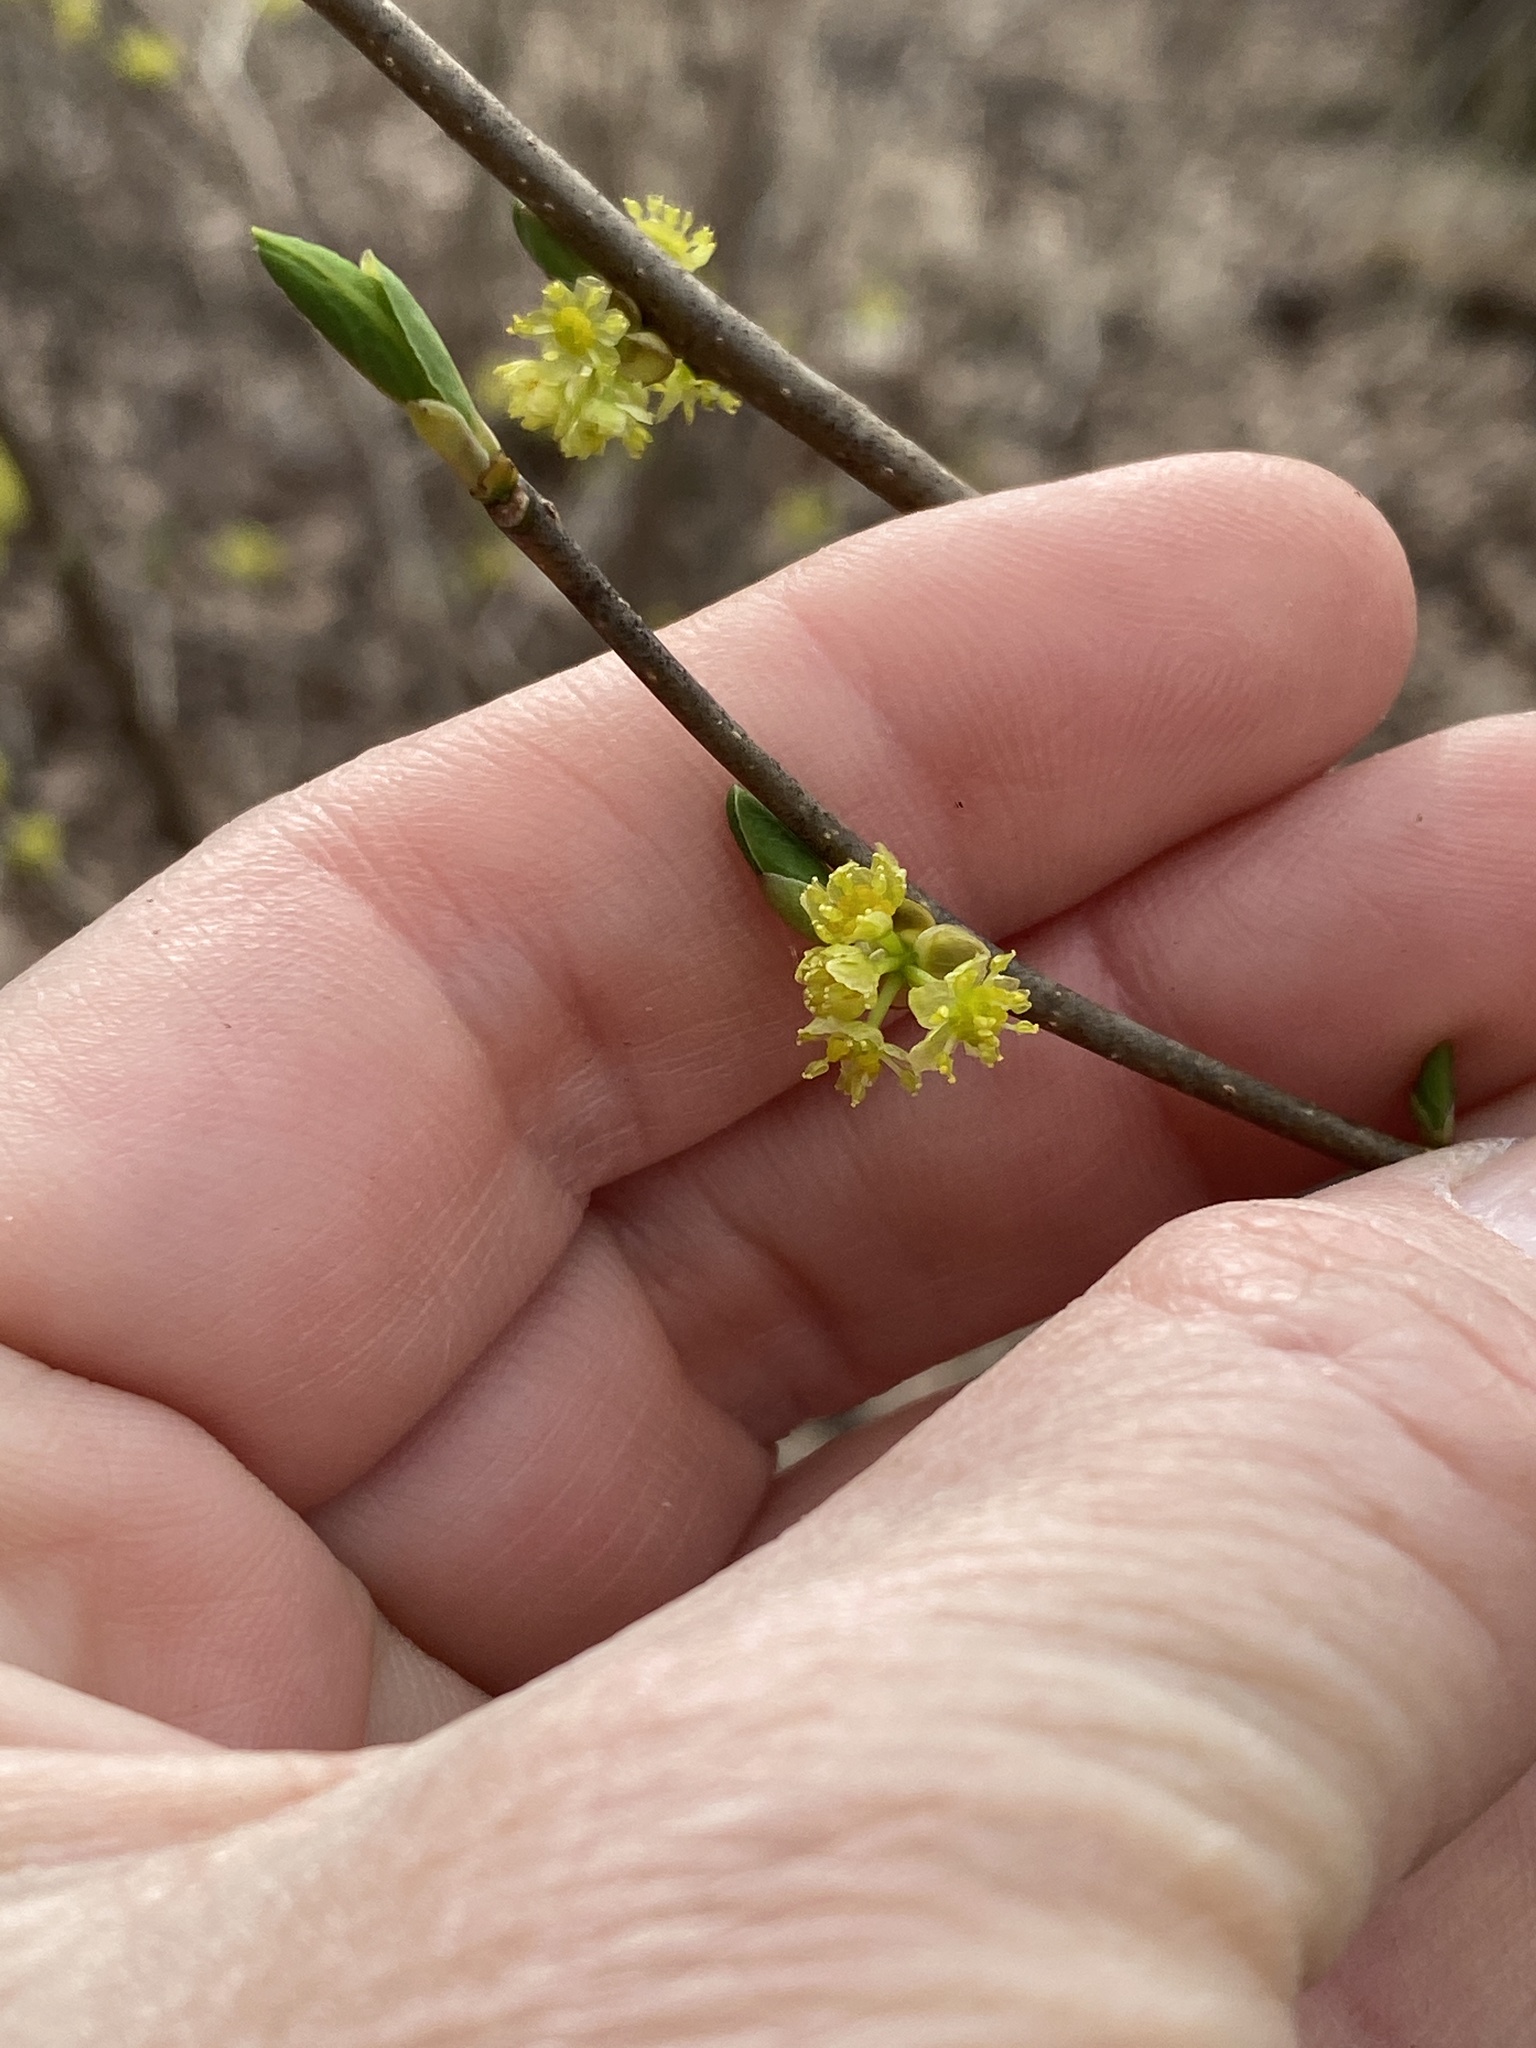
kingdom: Plantae
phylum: Tracheophyta
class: Magnoliopsida
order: Laurales
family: Lauraceae
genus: Lindera
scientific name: Lindera benzoin
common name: Spicebush
